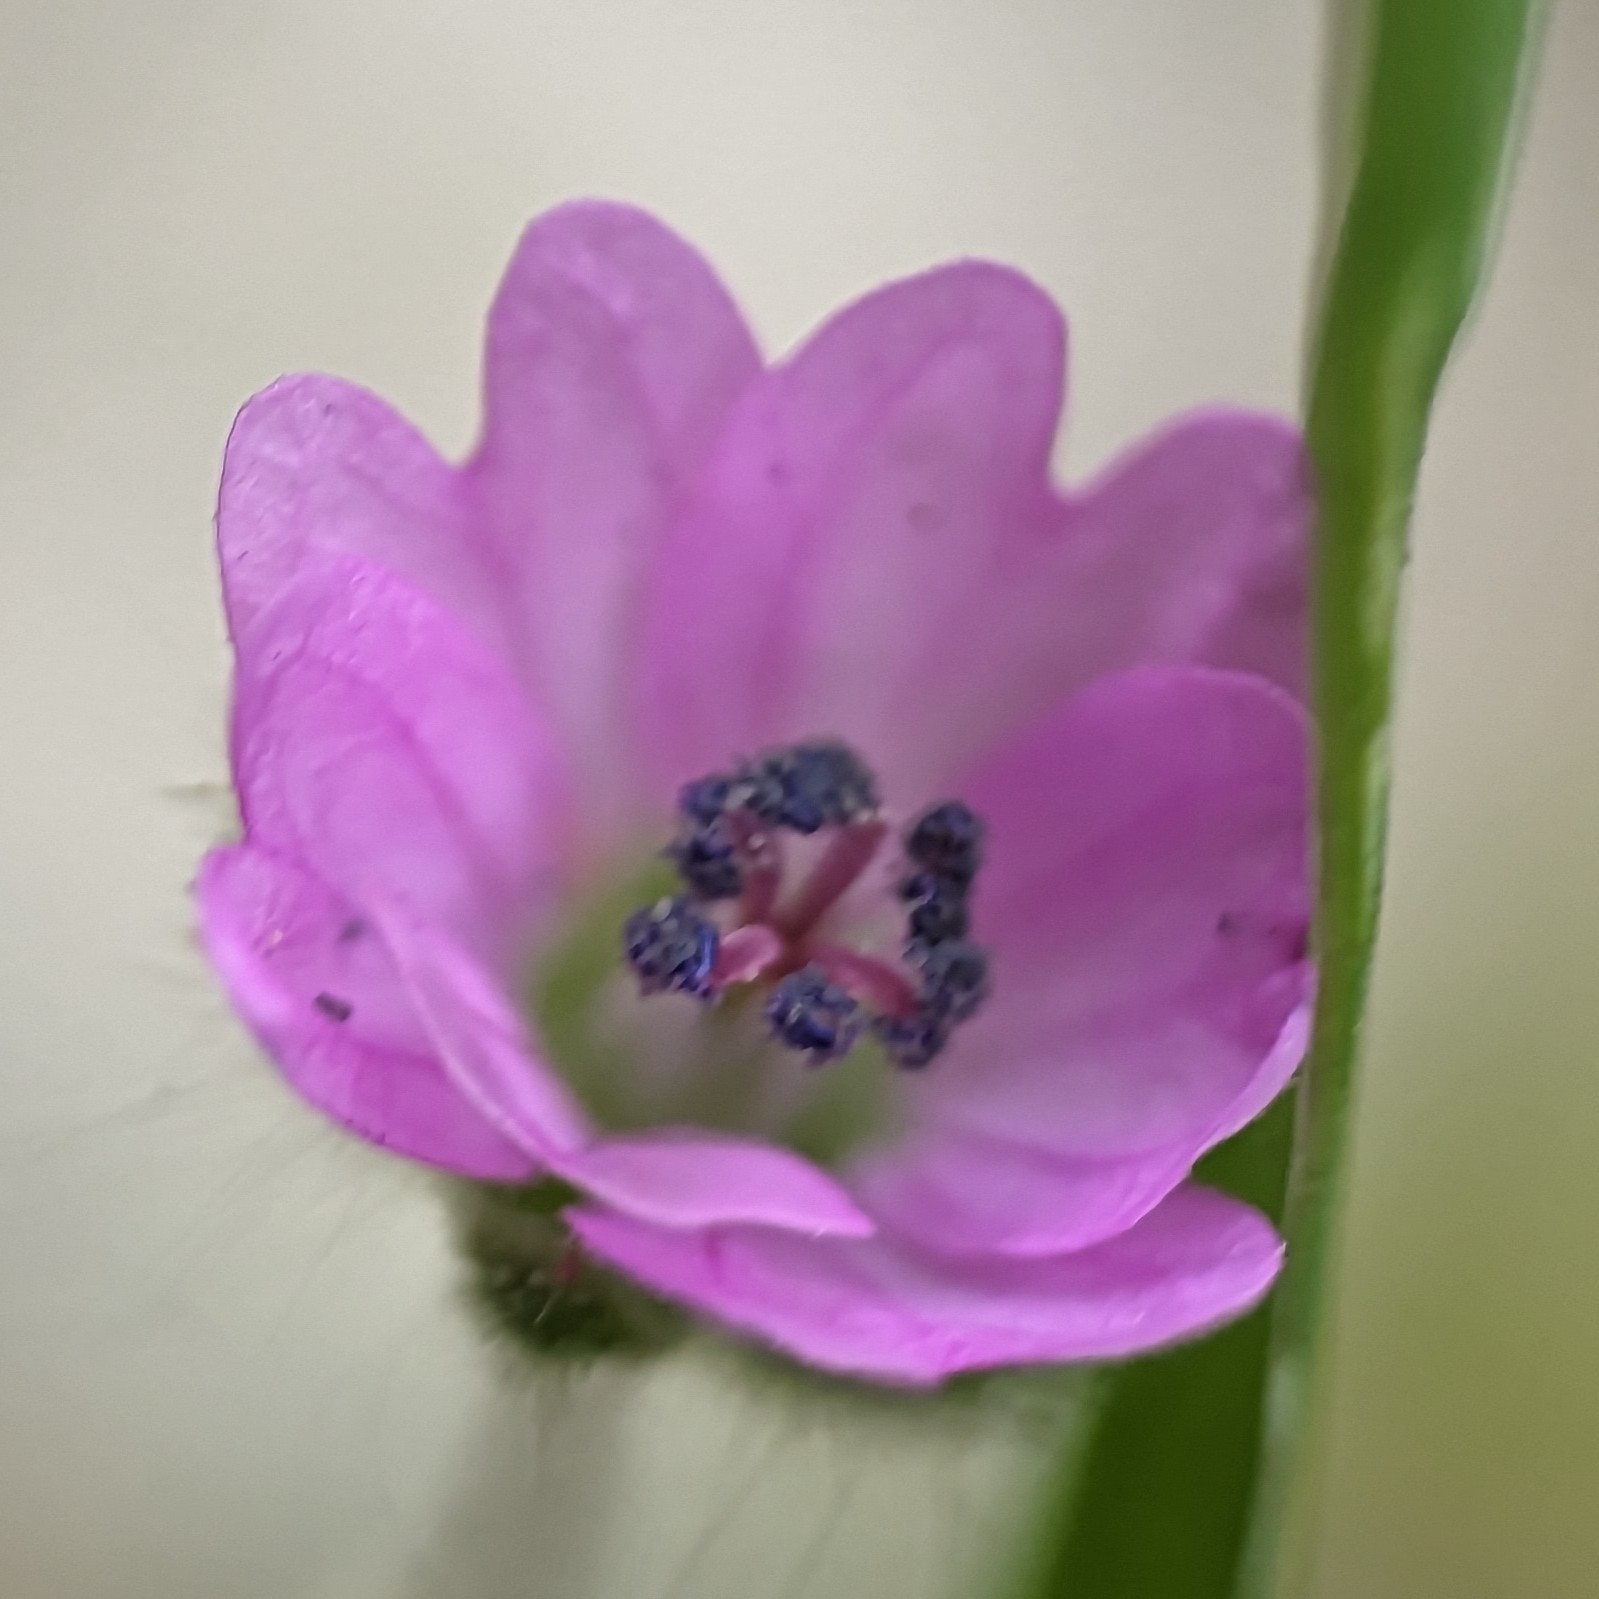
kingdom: Plantae
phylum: Tracheophyta
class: Magnoliopsida
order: Geraniales
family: Geraniaceae
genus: Geranium
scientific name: Geranium molle
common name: Dove's-foot crane's-bill
